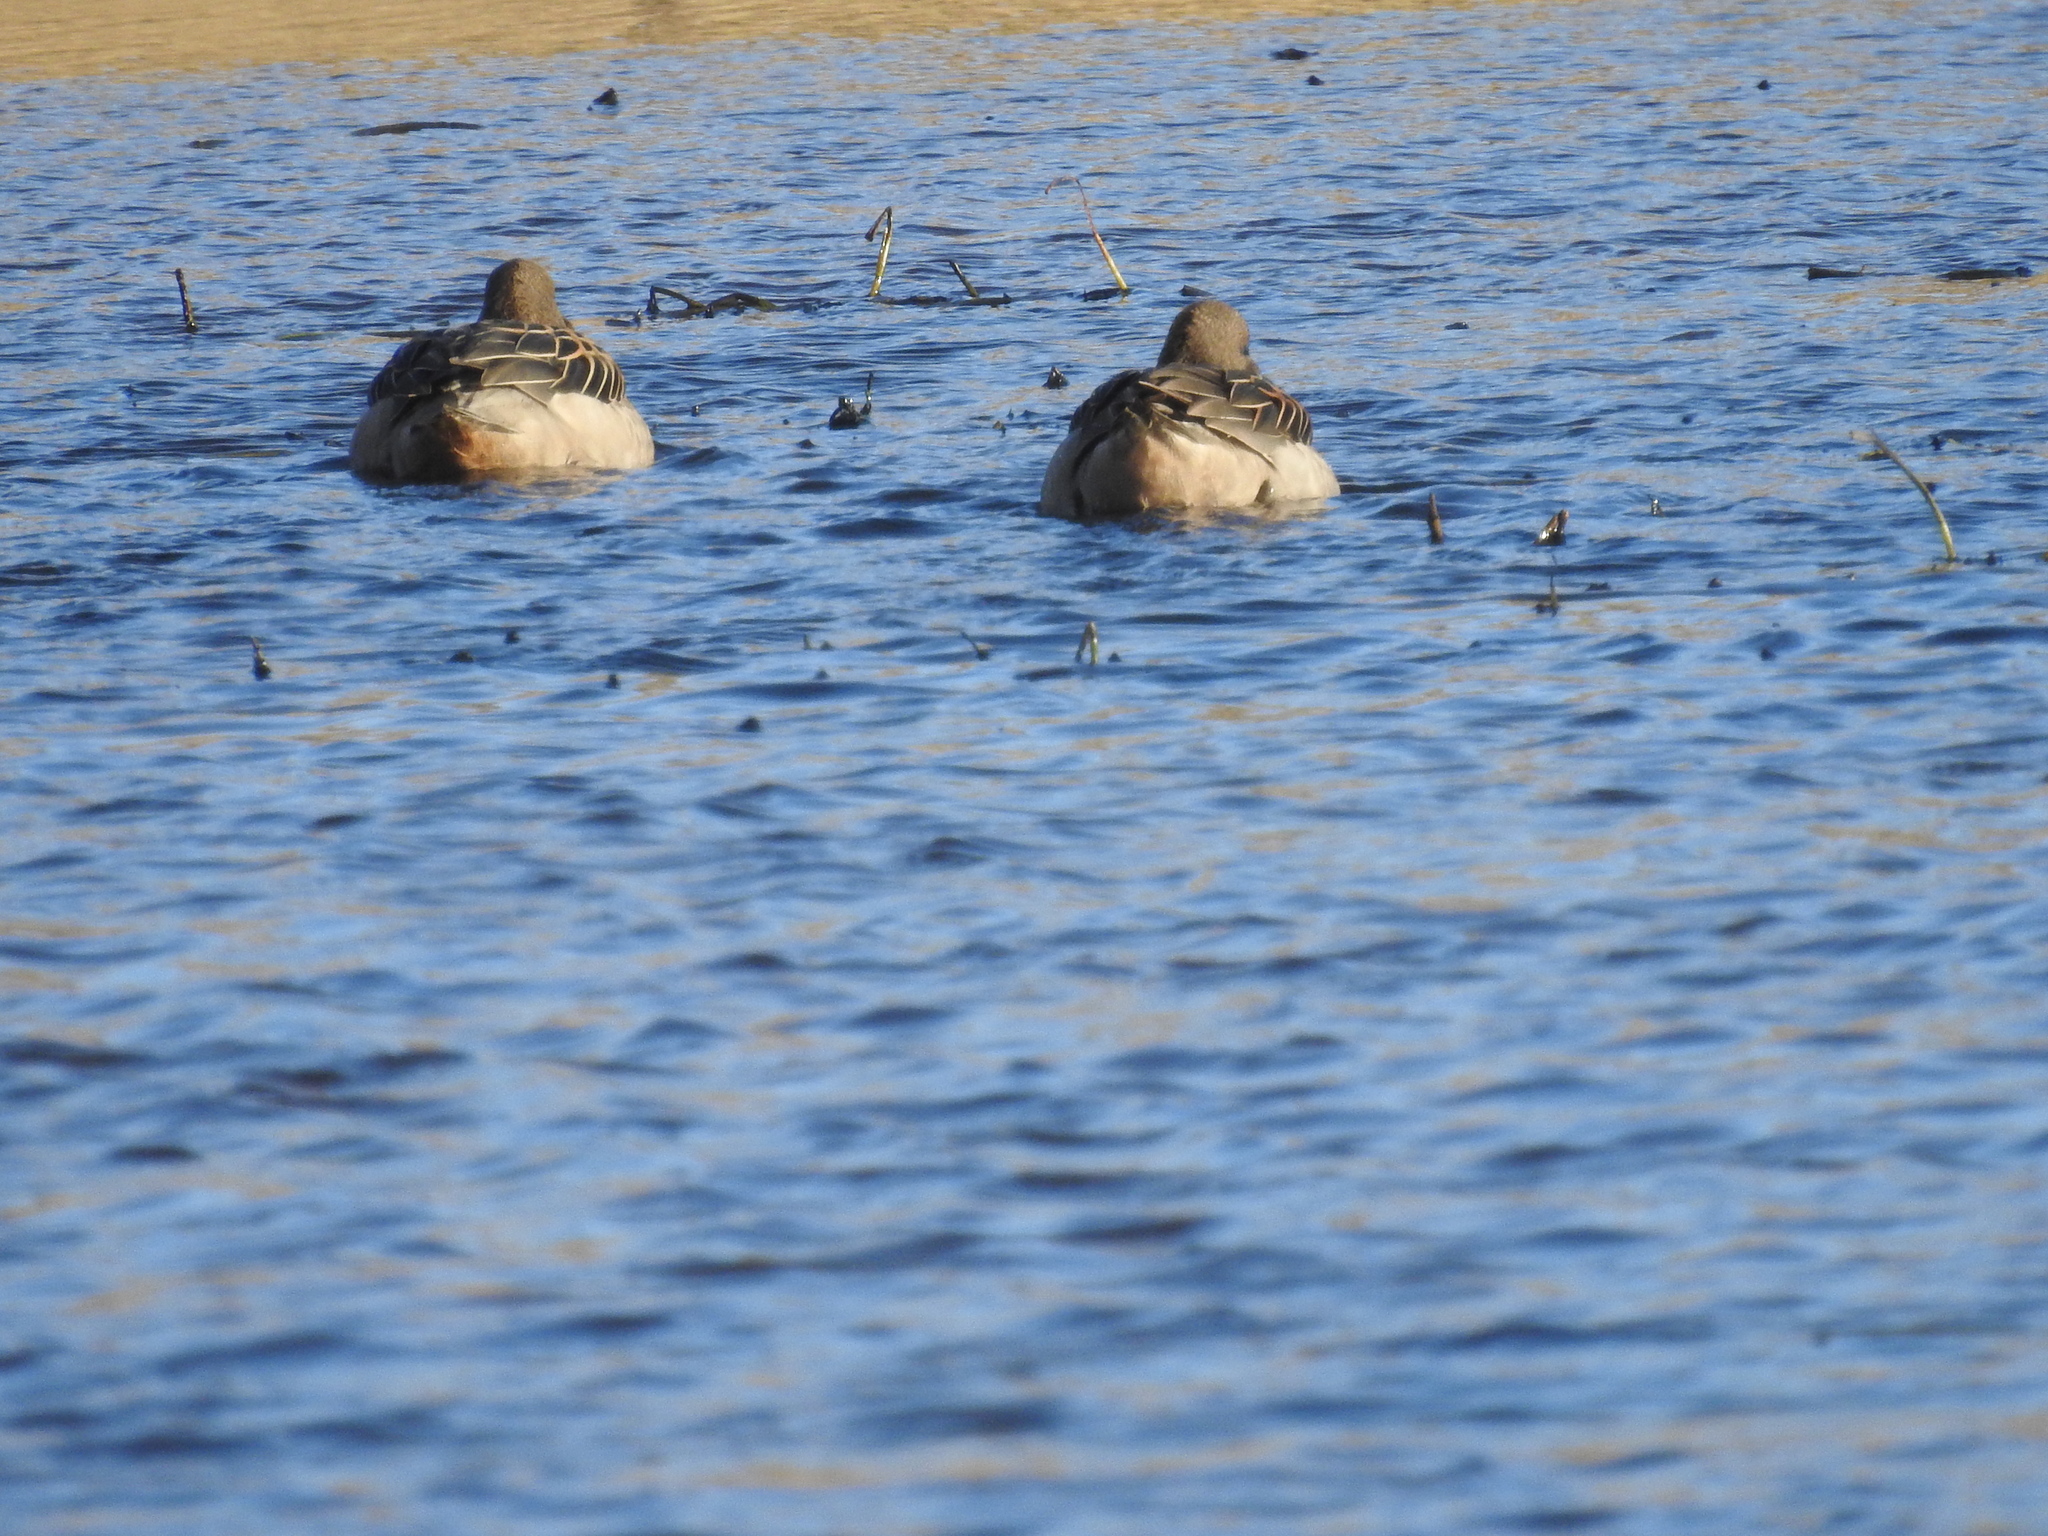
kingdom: Animalia
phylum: Chordata
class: Aves
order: Anseriformes
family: Anatidae
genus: Anas
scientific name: Anas flavirostris
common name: Yellow-billed teal
